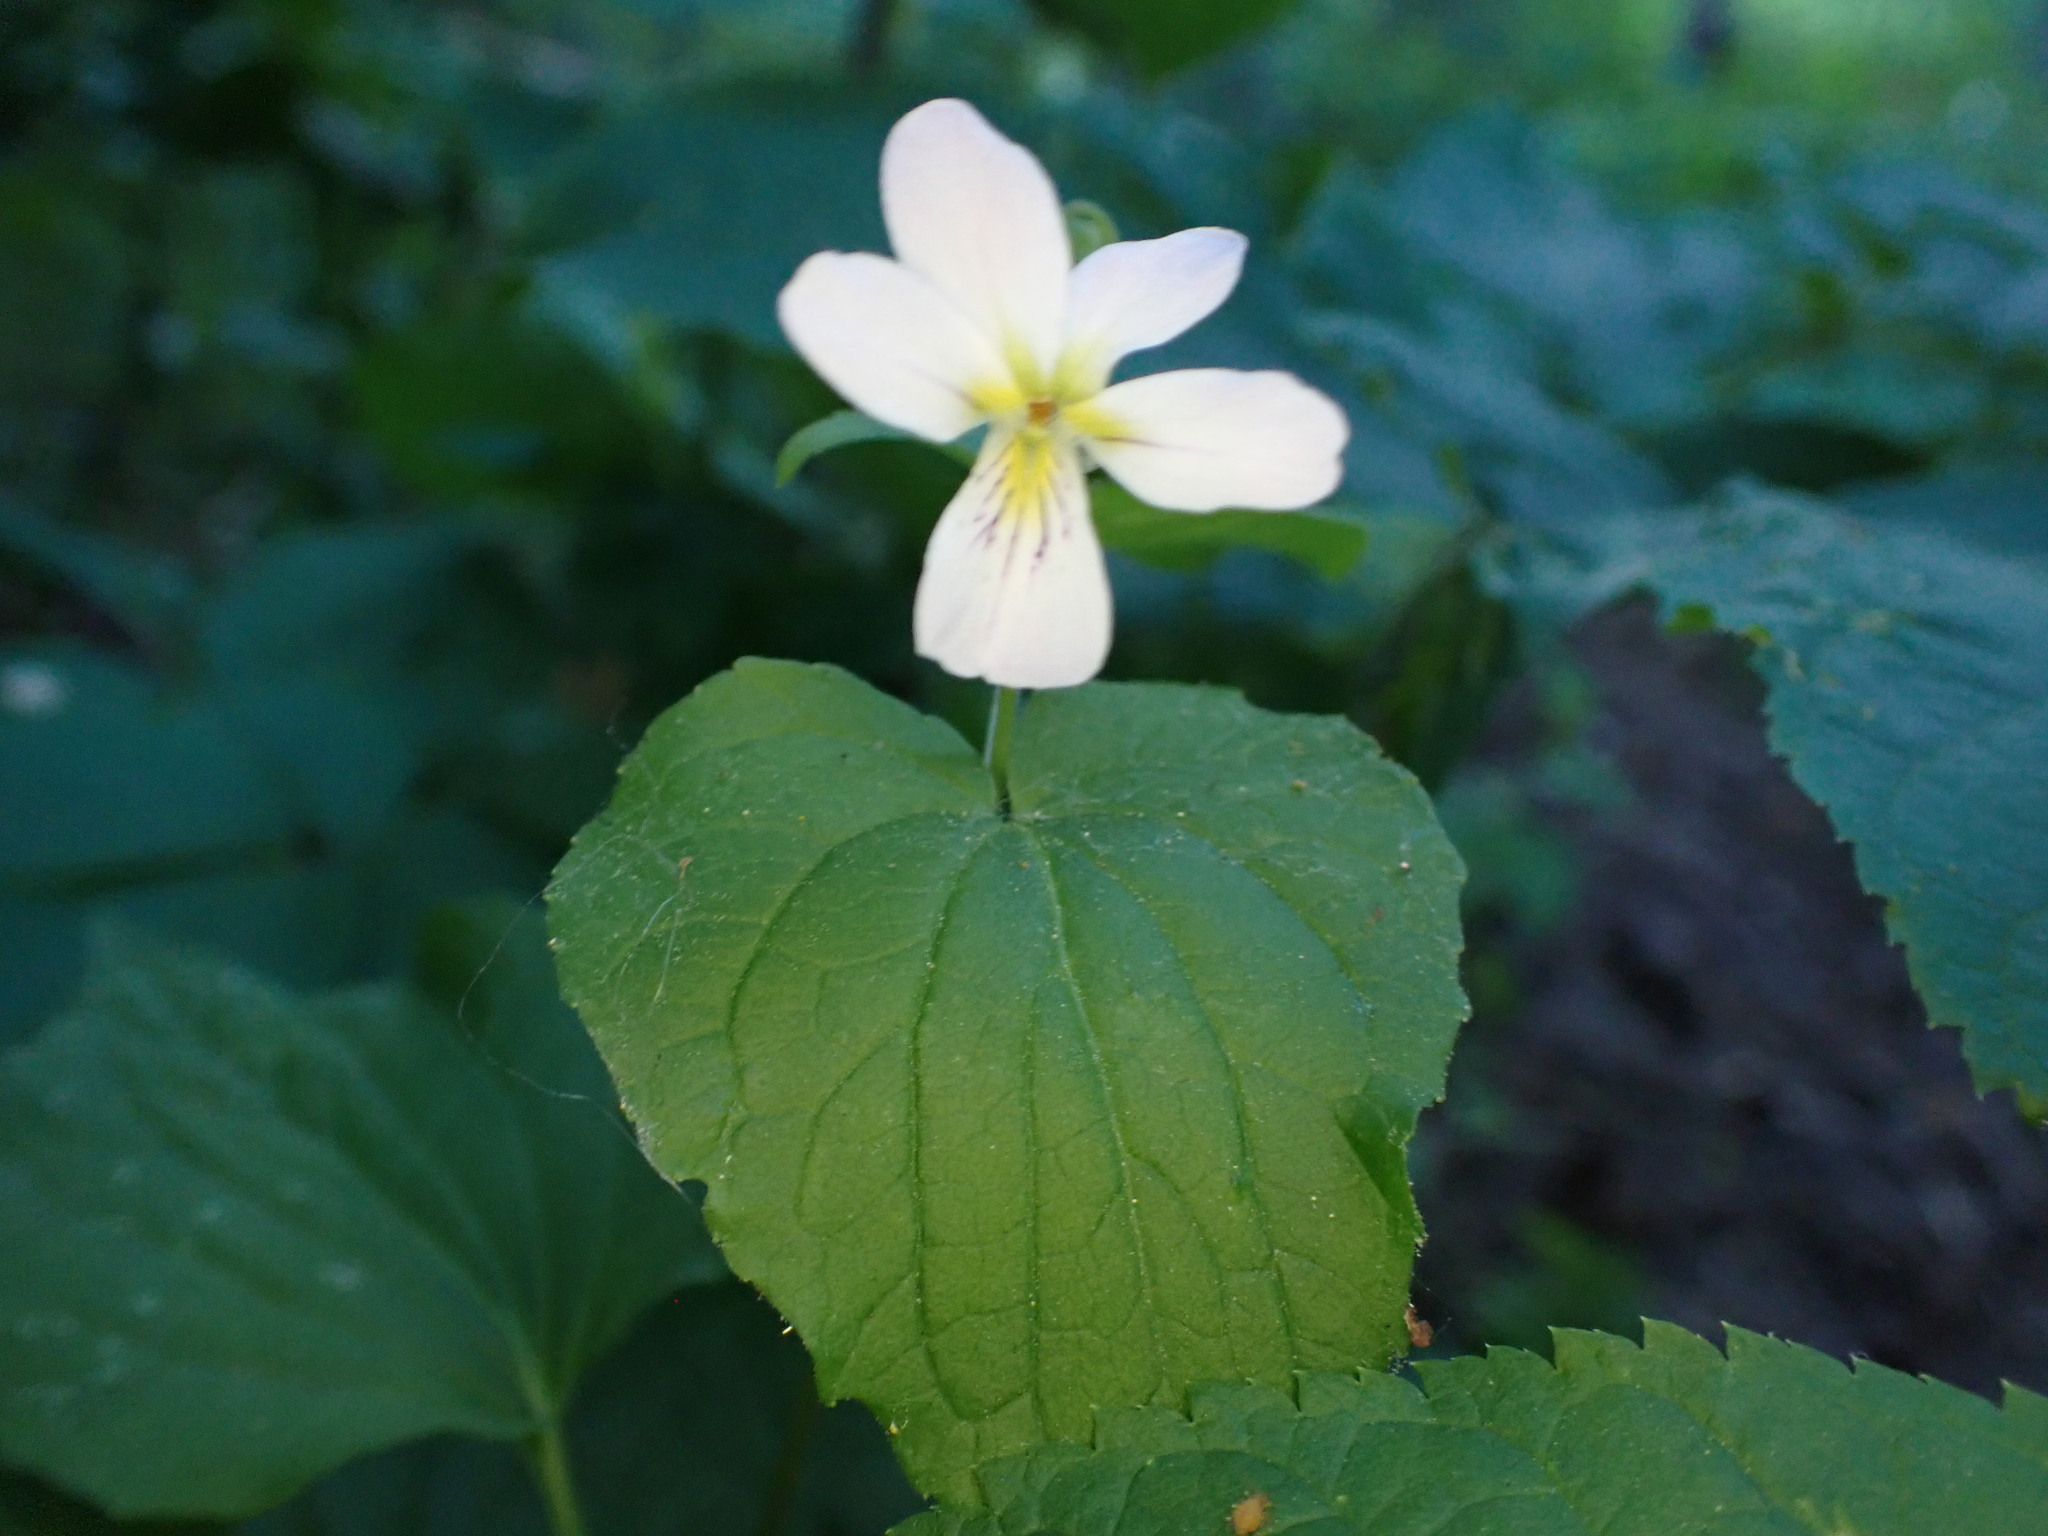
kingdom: Plantae
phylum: Tracheophyta
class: Magnoliopsida
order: Malpighiales
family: Violaceae
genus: Viola
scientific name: Viola canadensis
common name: Canada violet
